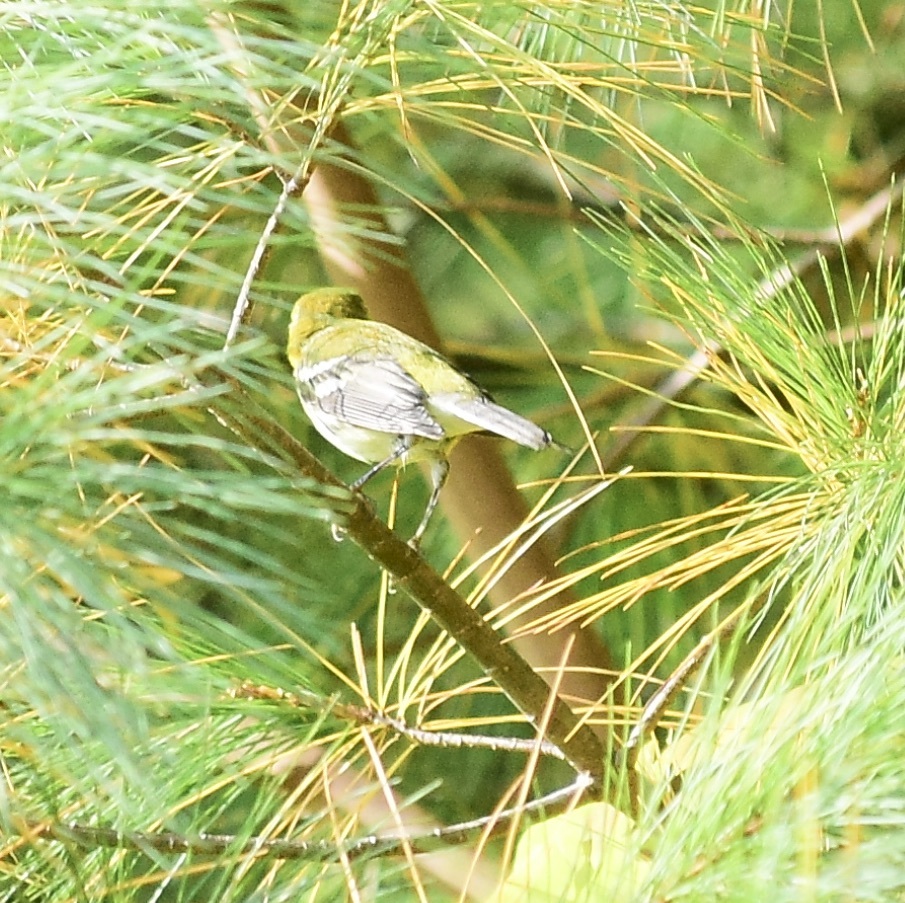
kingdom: Animalia
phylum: Chordata
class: Aves
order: Passeriformes
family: Parulidae
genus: Setophaga
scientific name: Setophaga virens
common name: Black-throated green warbler
